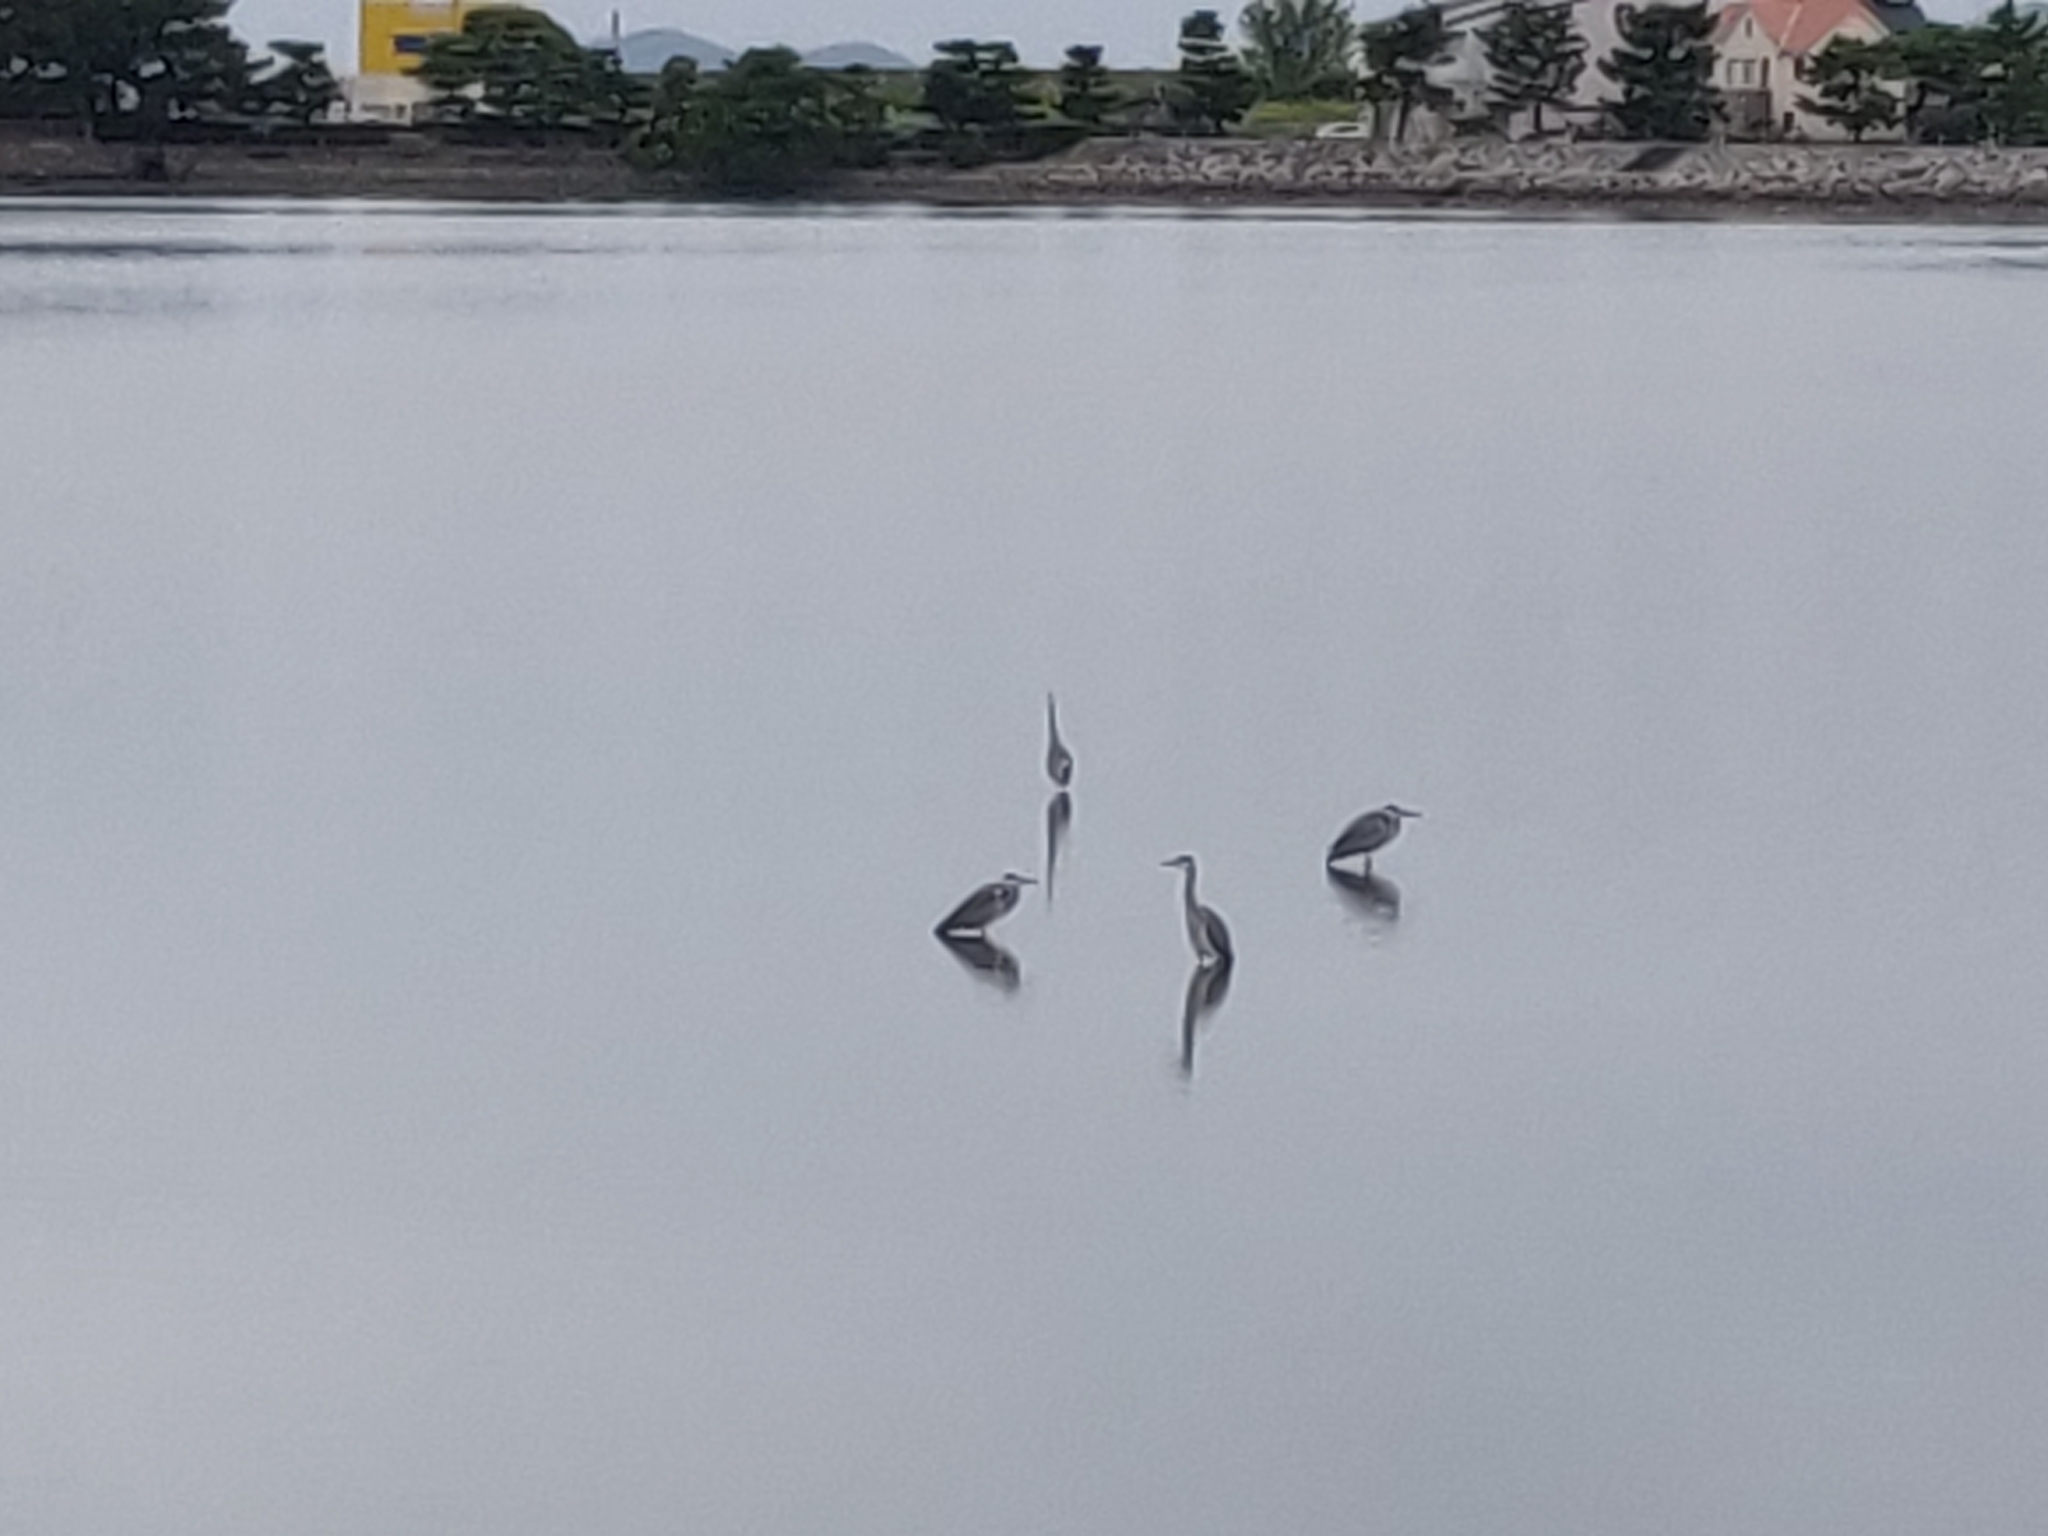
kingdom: Animalia
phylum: Chordata
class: Aves
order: Pelecaniformes
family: Ardeidae
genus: Ardea
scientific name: Ardea cinerea
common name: Grey heron
